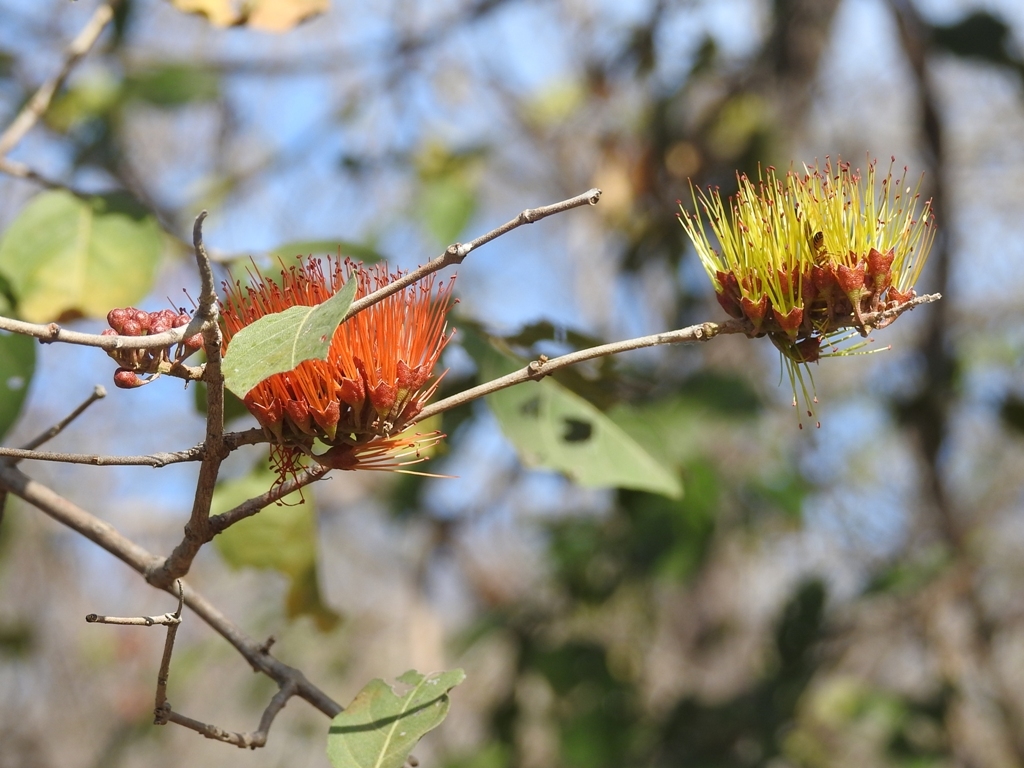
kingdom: Plantae
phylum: Tracheophyta
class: Magnoliopsida
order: Myrtales
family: Combretaceae
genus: Combretum
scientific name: Combretum farinosum
